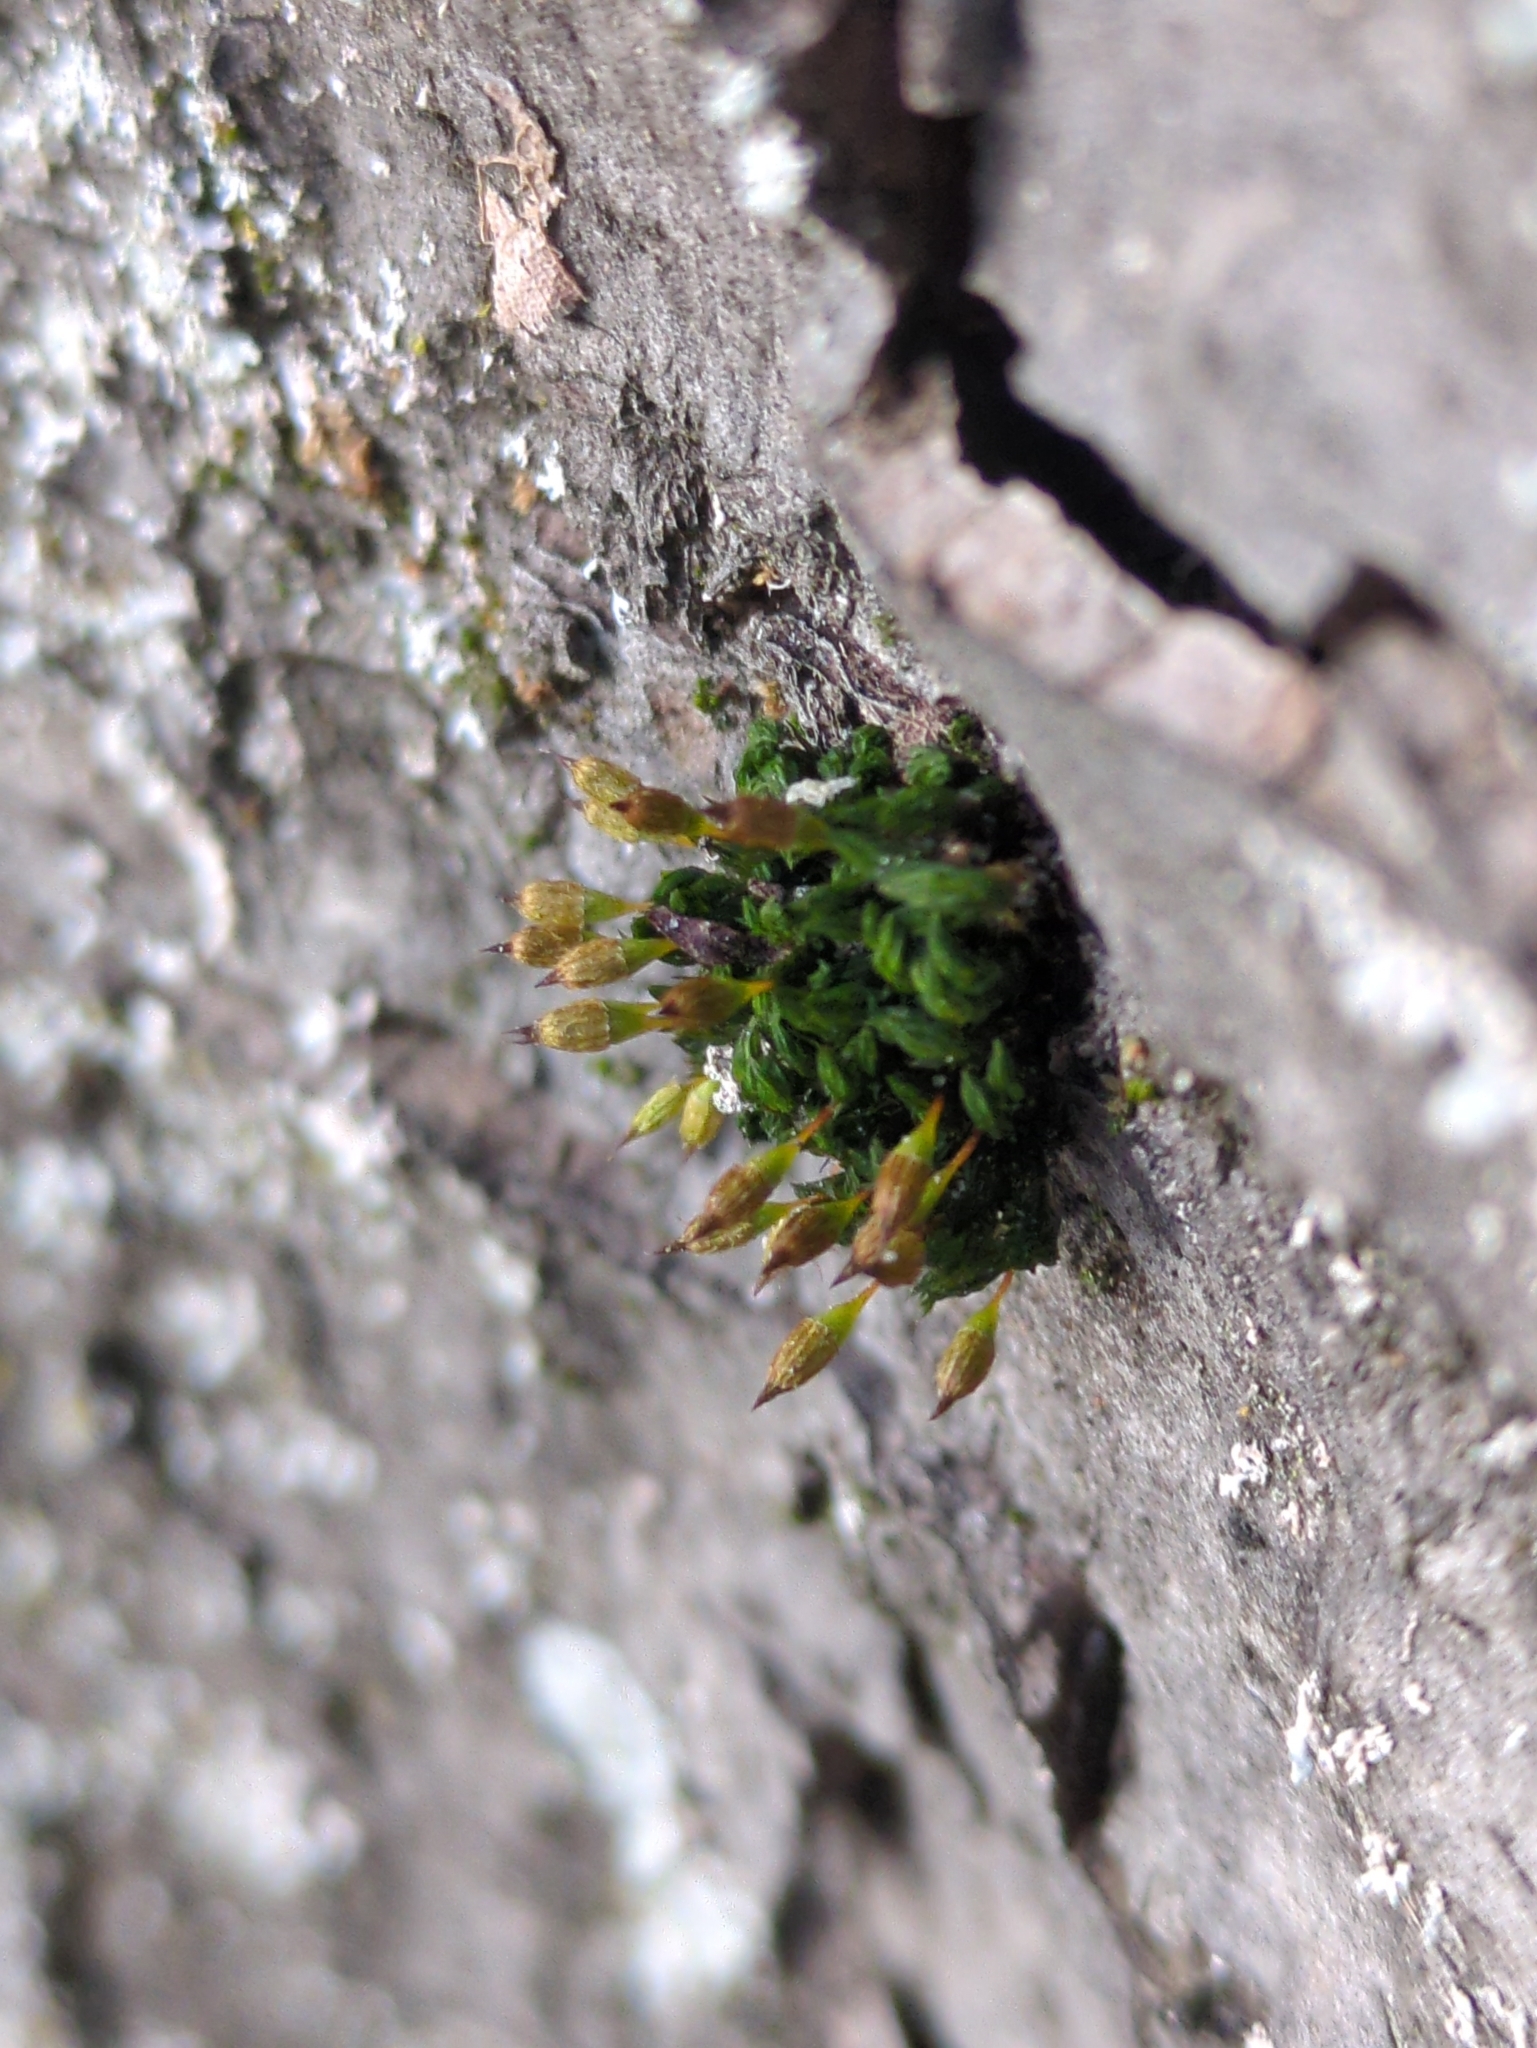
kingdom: Plantae
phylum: Bryophyta
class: Bryopsida
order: Orthotrichales
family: Orthotrichaceae
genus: Orthotrichum
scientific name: Orthotrichum anomalum
